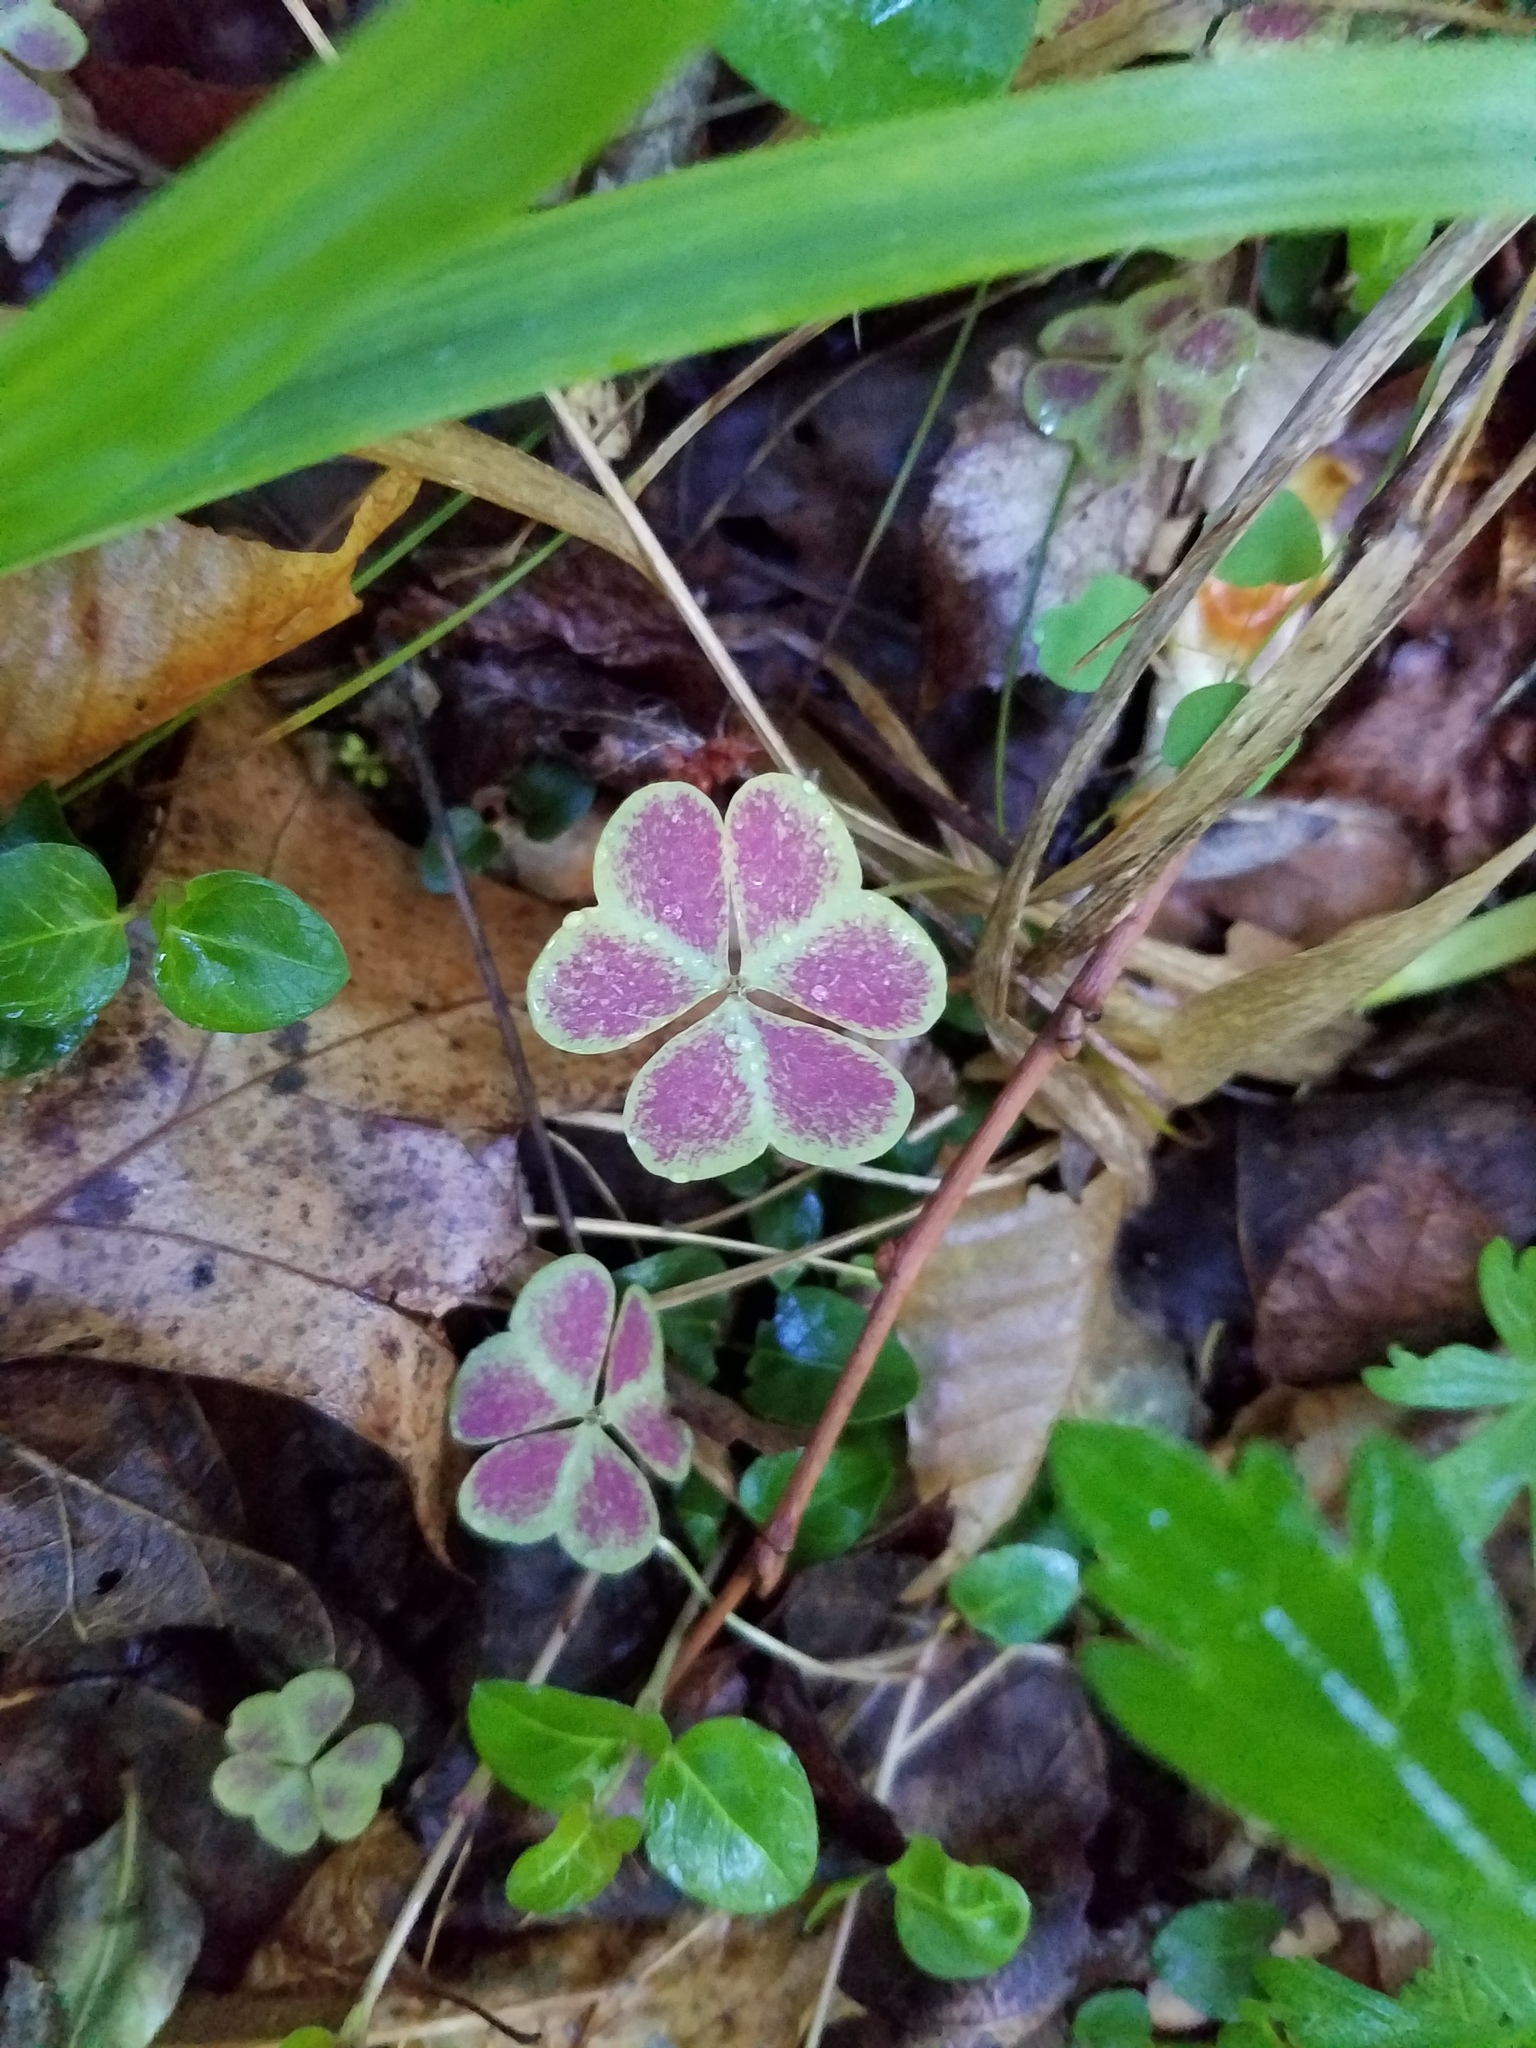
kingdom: Plantae
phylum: Tracheophyta
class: Magnoliopsida
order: Oxalidales
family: Oxalidaceae
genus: Oxalis
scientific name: Oxalis violacea
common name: Violet wood-sorrel
